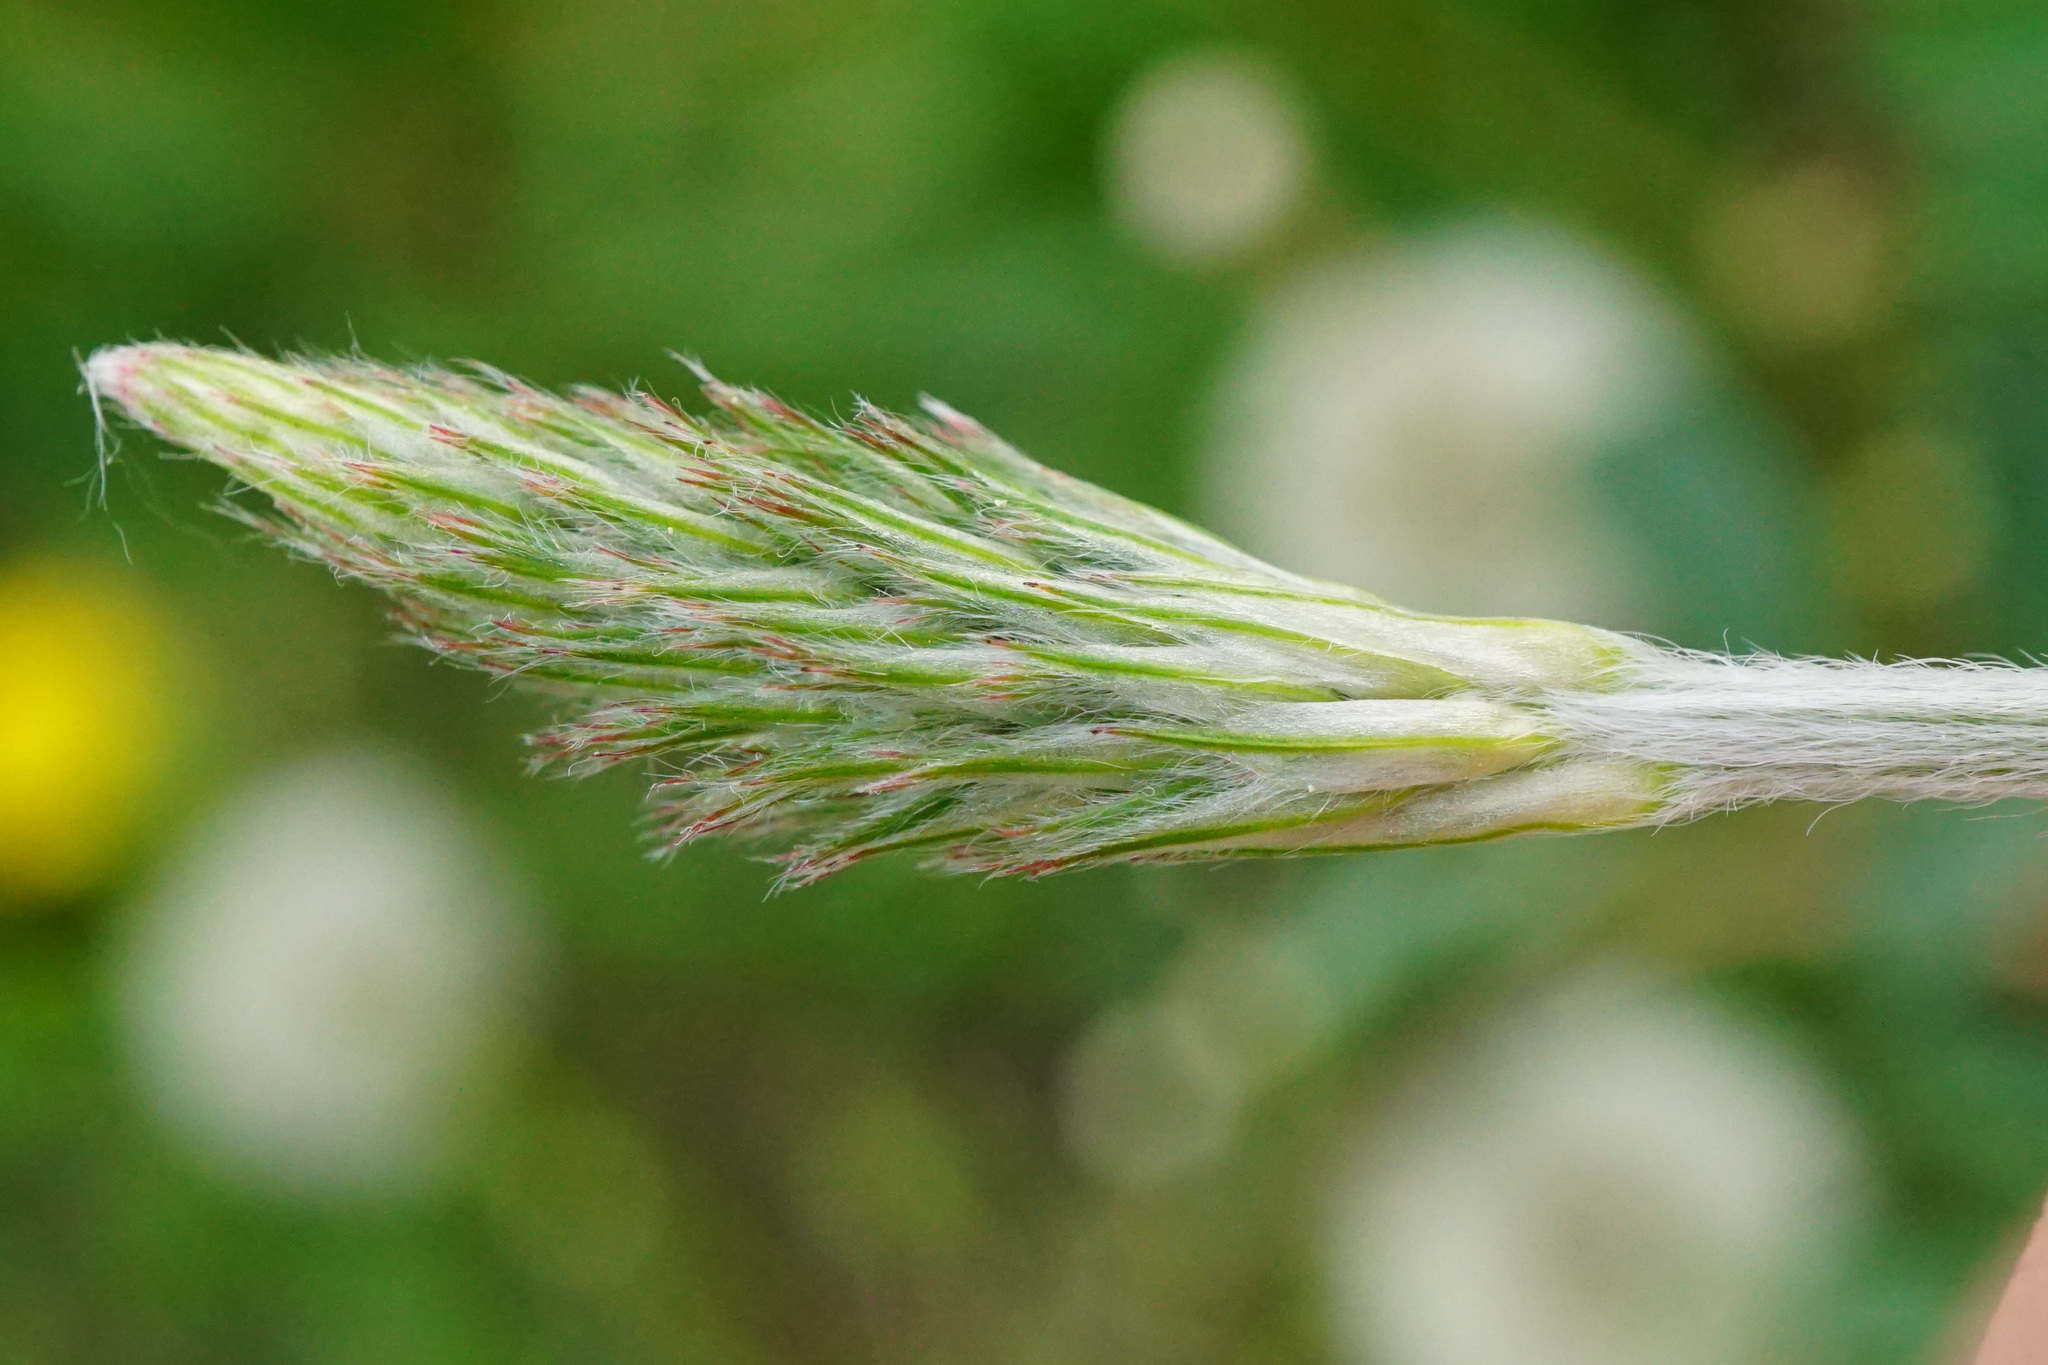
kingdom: Plantae
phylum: Tracheophyta
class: Magnoliopsida
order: Fabales
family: Fabaceae
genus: Onobrychis
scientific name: Onobrychis viciifolia
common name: Sainfoin
